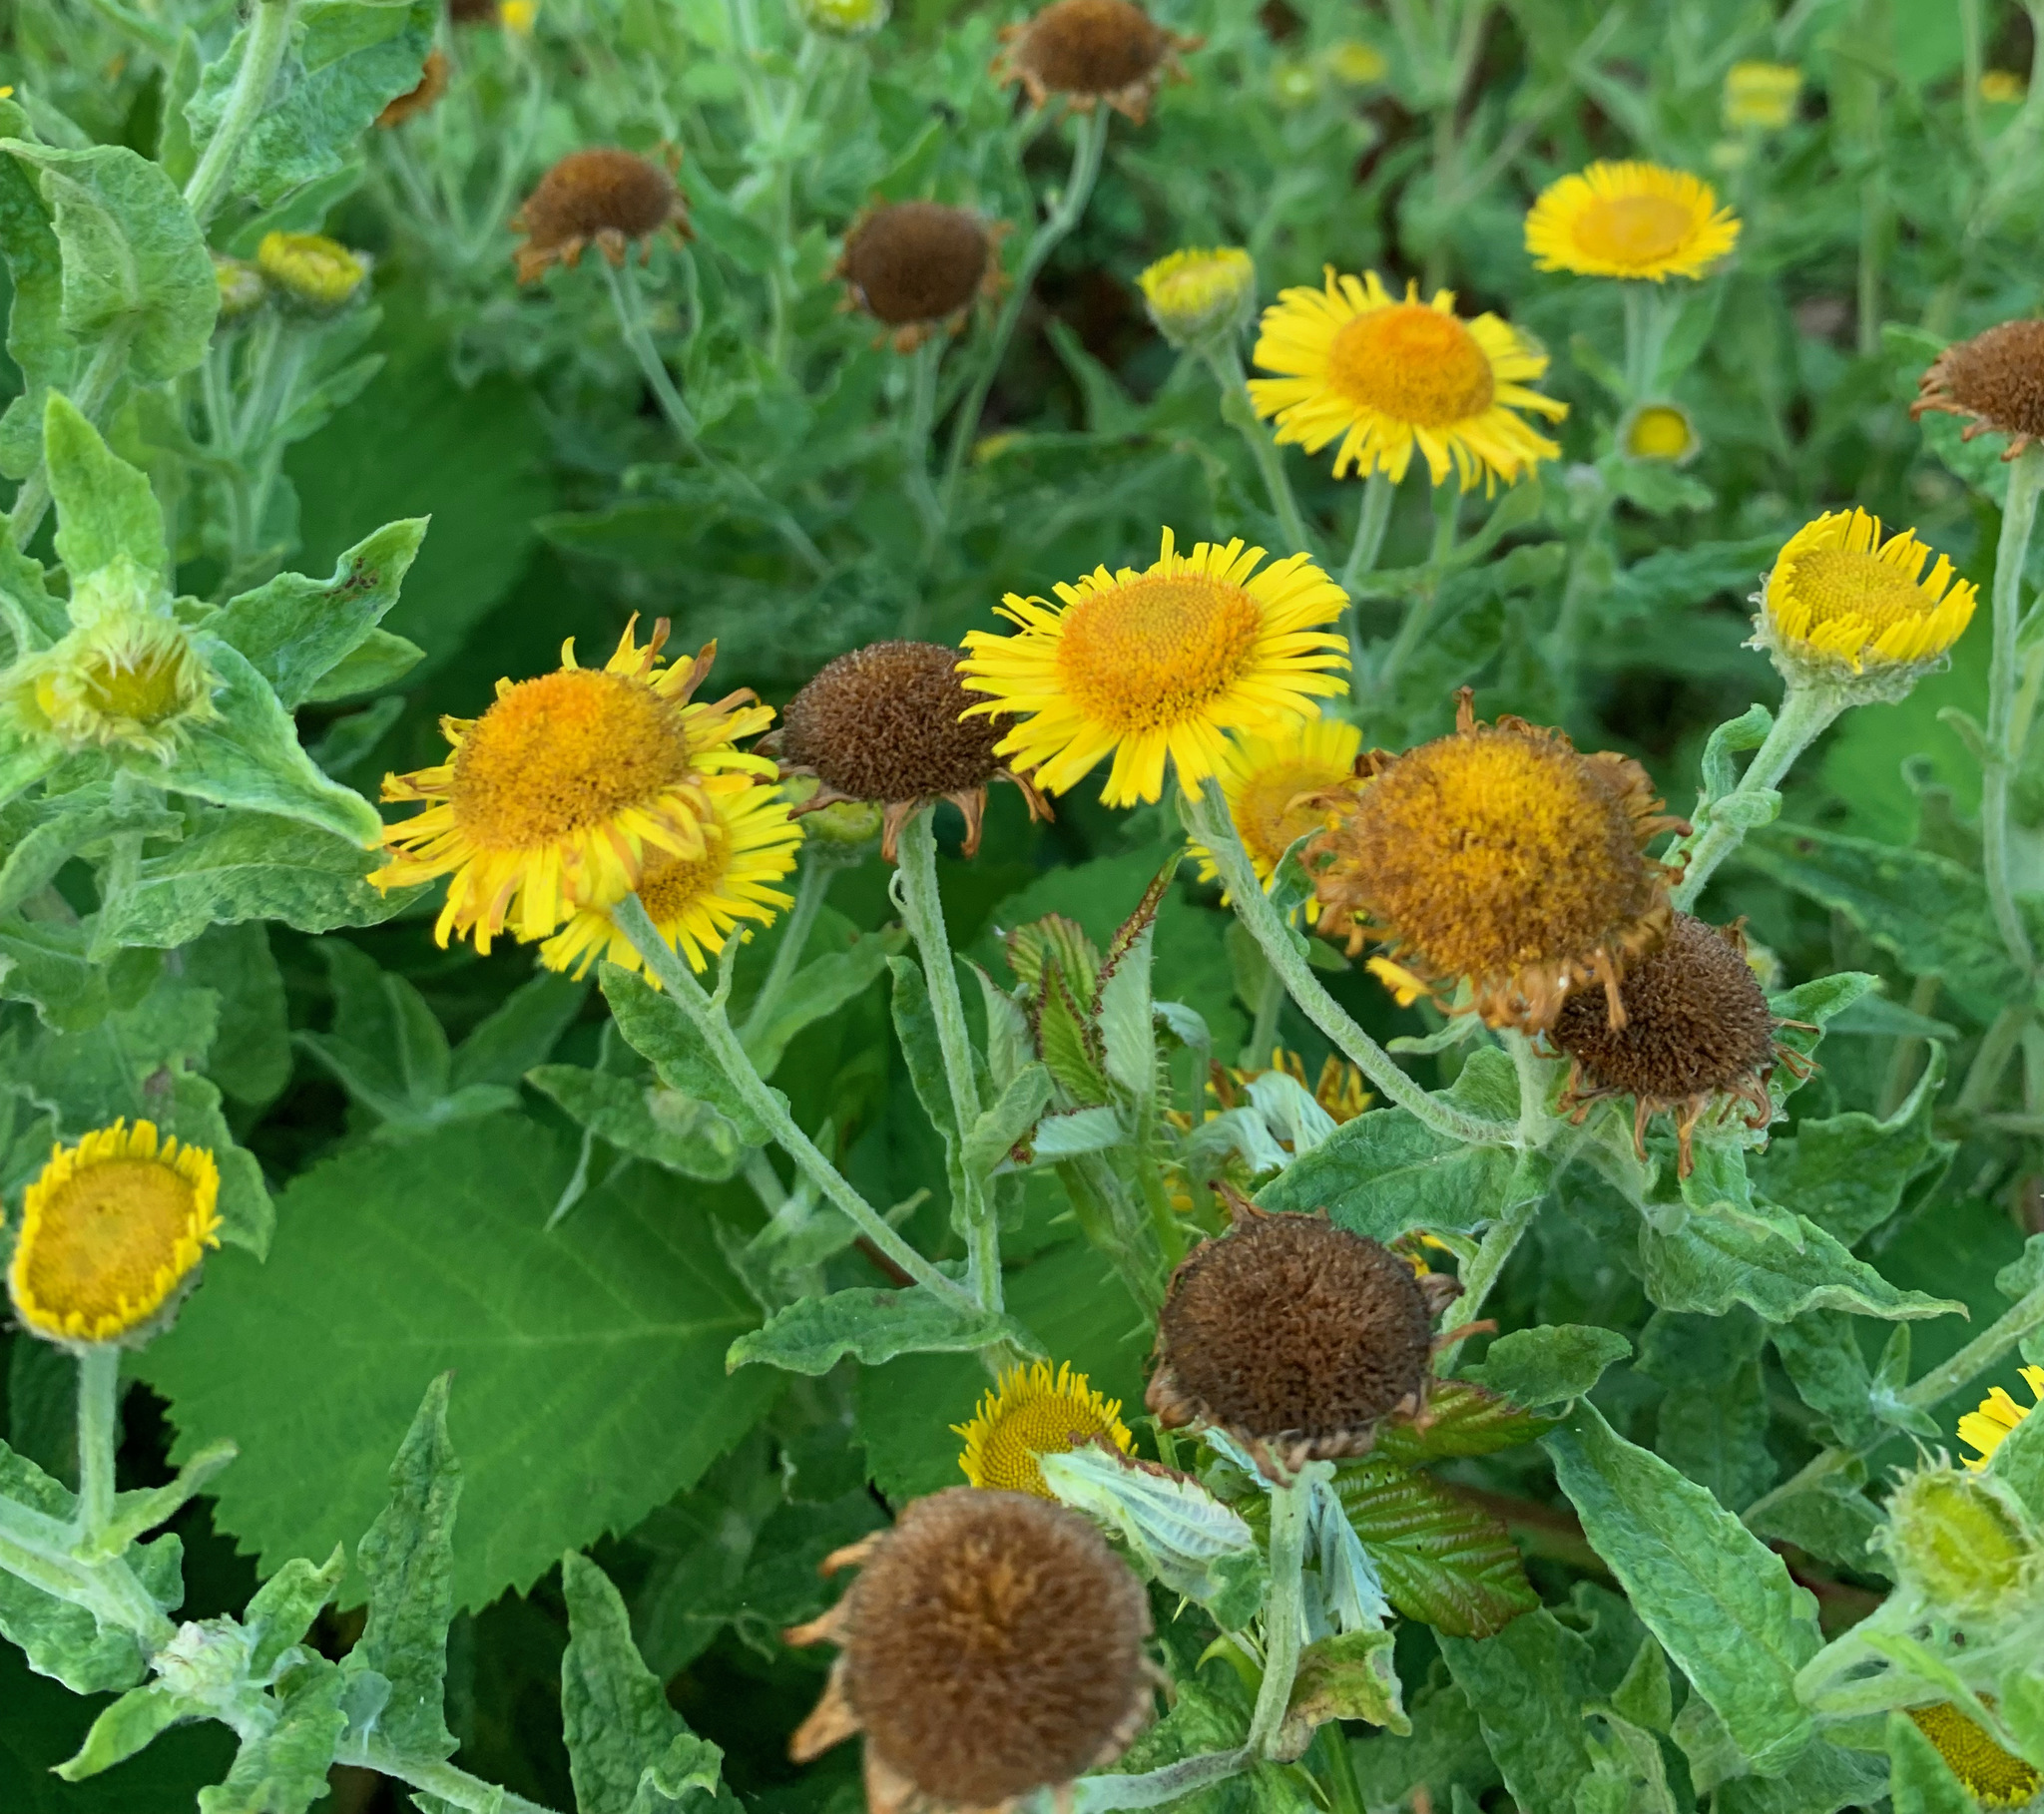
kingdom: Plantae
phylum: Tracheophyta
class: Magnoliopsida
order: Asterales
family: Asteraceae
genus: Pulicaria
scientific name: Pulicaria dysenterica
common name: Common fleabane
